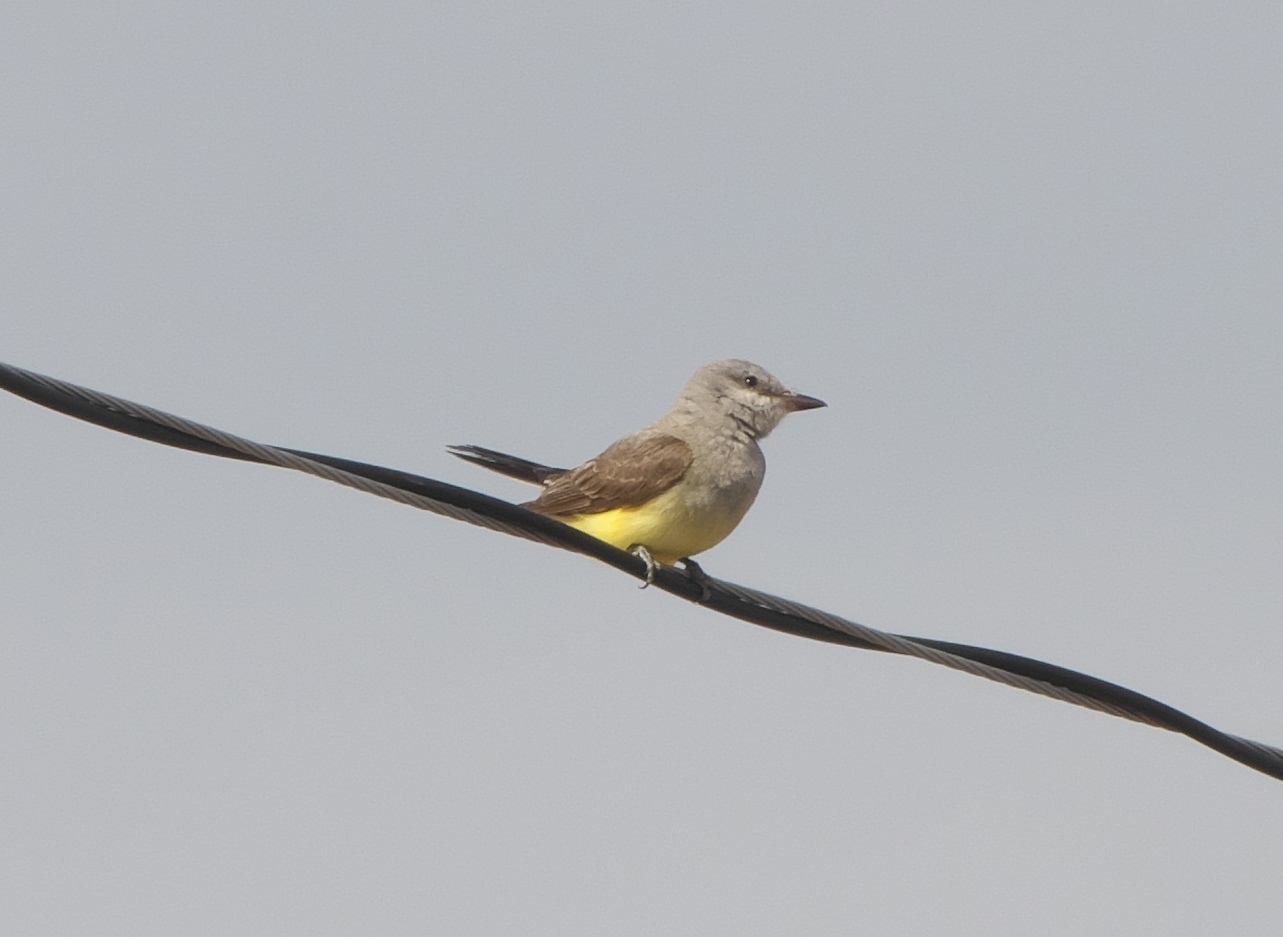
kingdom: Animalia
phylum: Chordata
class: Aves
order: Passeriformes
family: Tyrannidae
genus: Tyrannus
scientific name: Tyrannus verticalis
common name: Western kingbird
